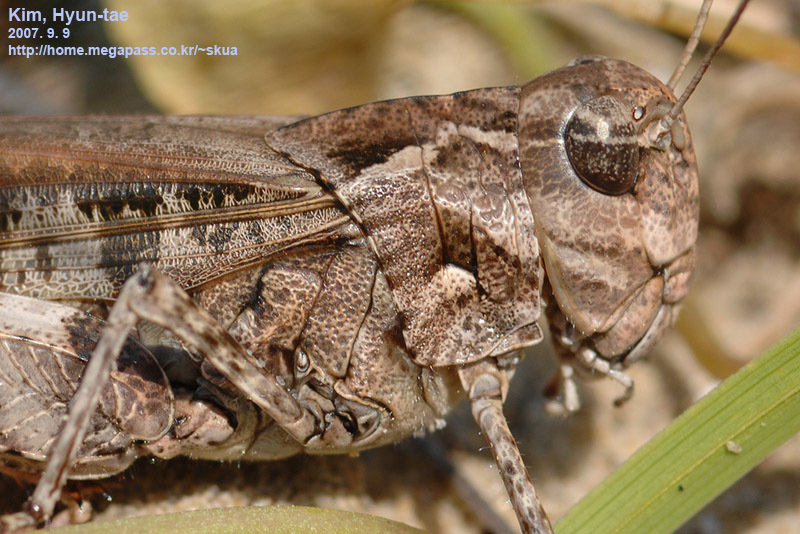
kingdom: Animalia
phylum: Arthropoda
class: Insecta
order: Orthoptera
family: Acrididae
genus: Oedaleus
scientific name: Oedaleus infernalis
